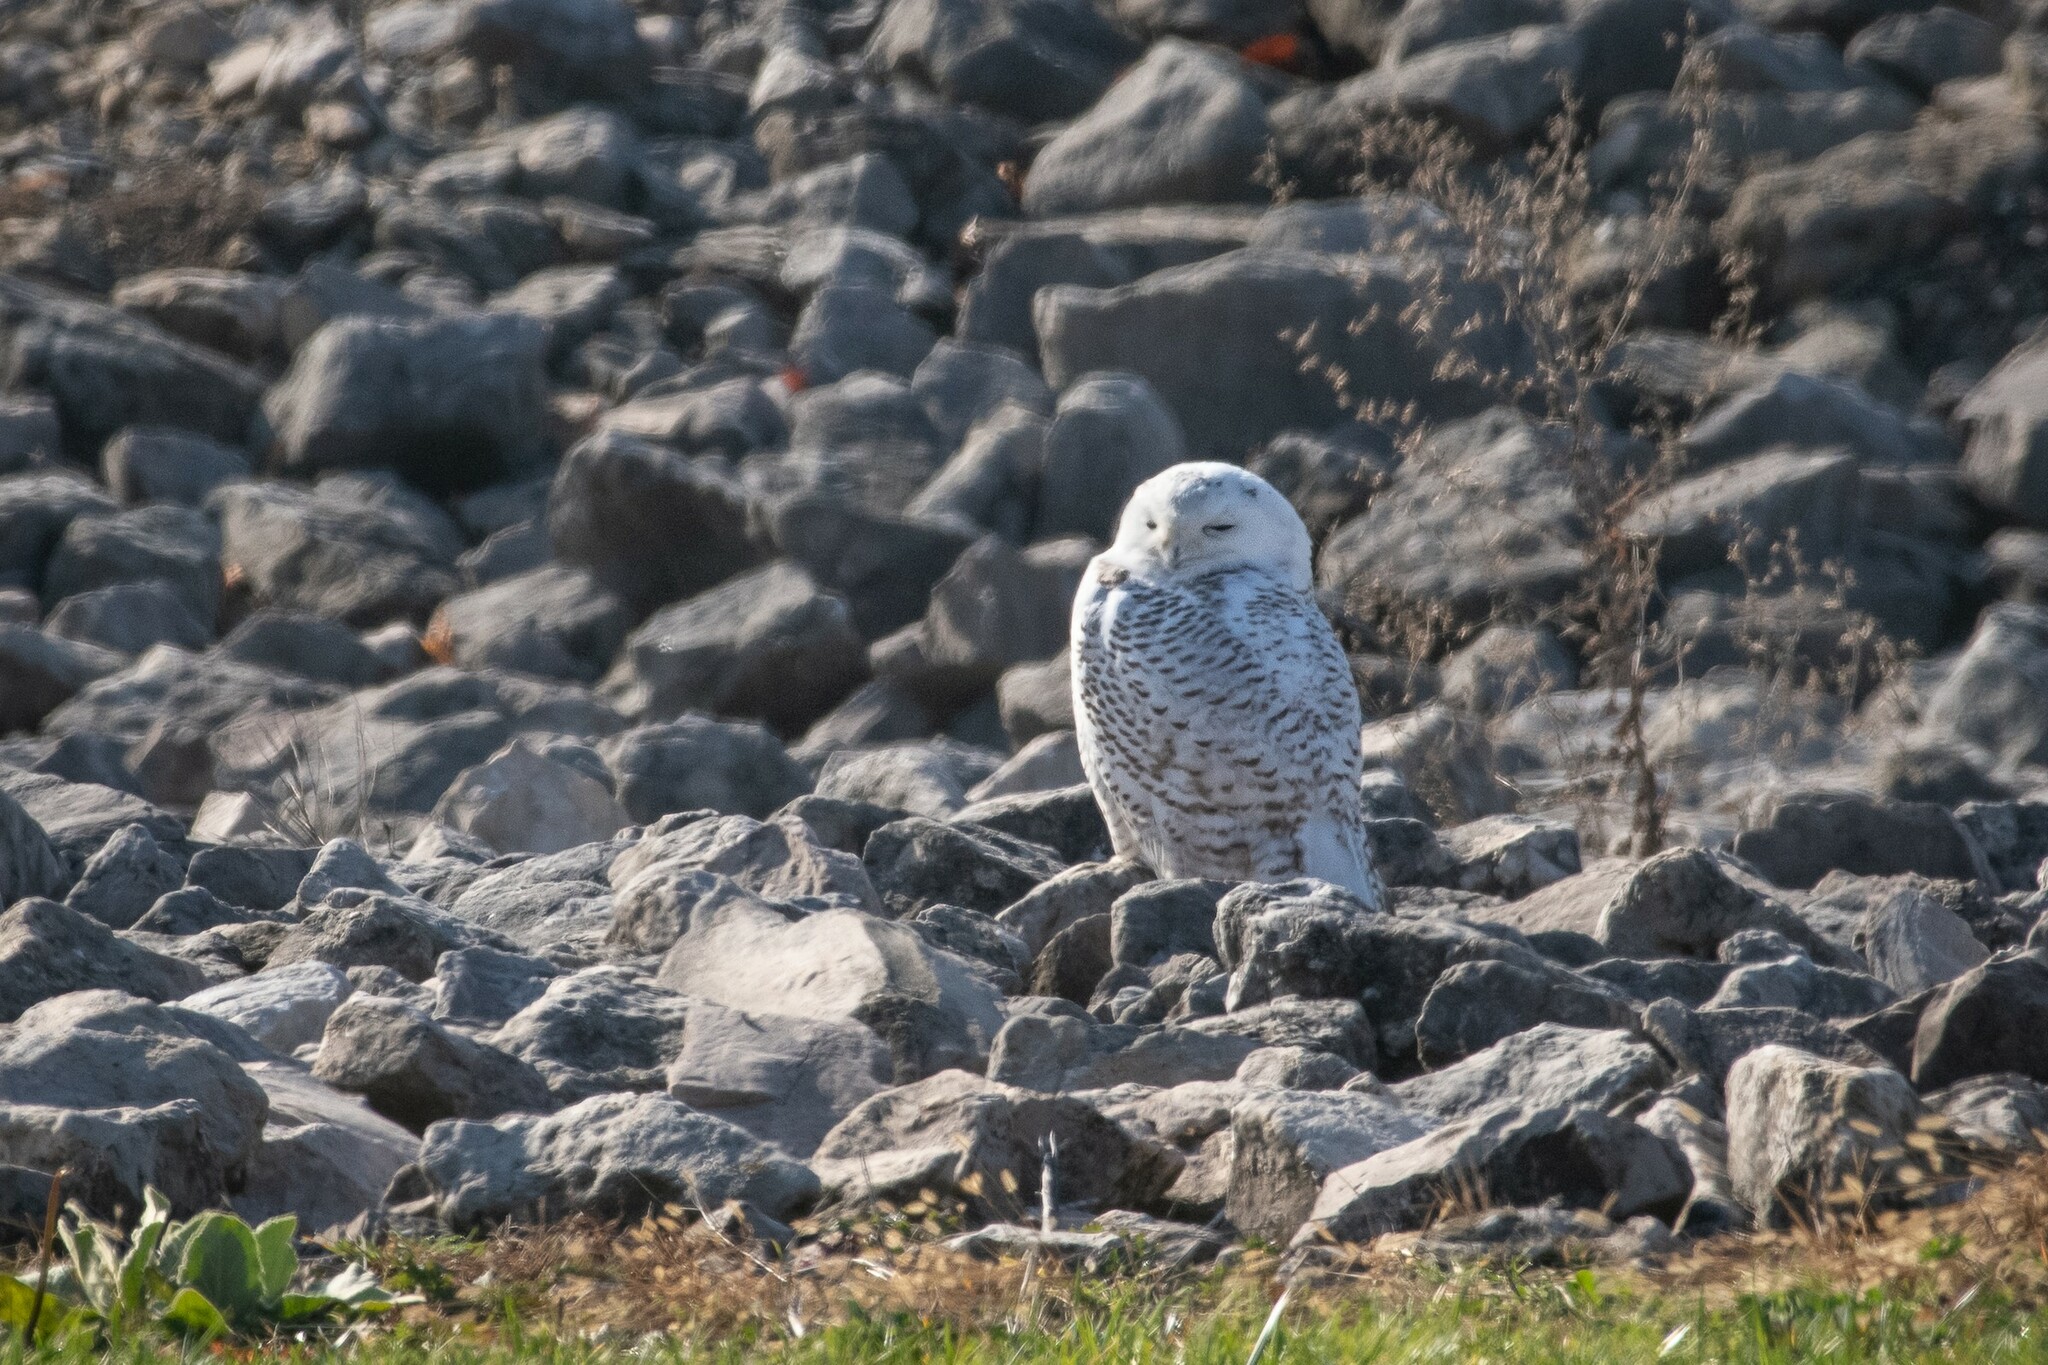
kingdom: Animalia
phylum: Chordata
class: Aves
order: Strigiformes
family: Strigidae
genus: Bubo
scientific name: Bubo scandiacus
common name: Snowy owl
